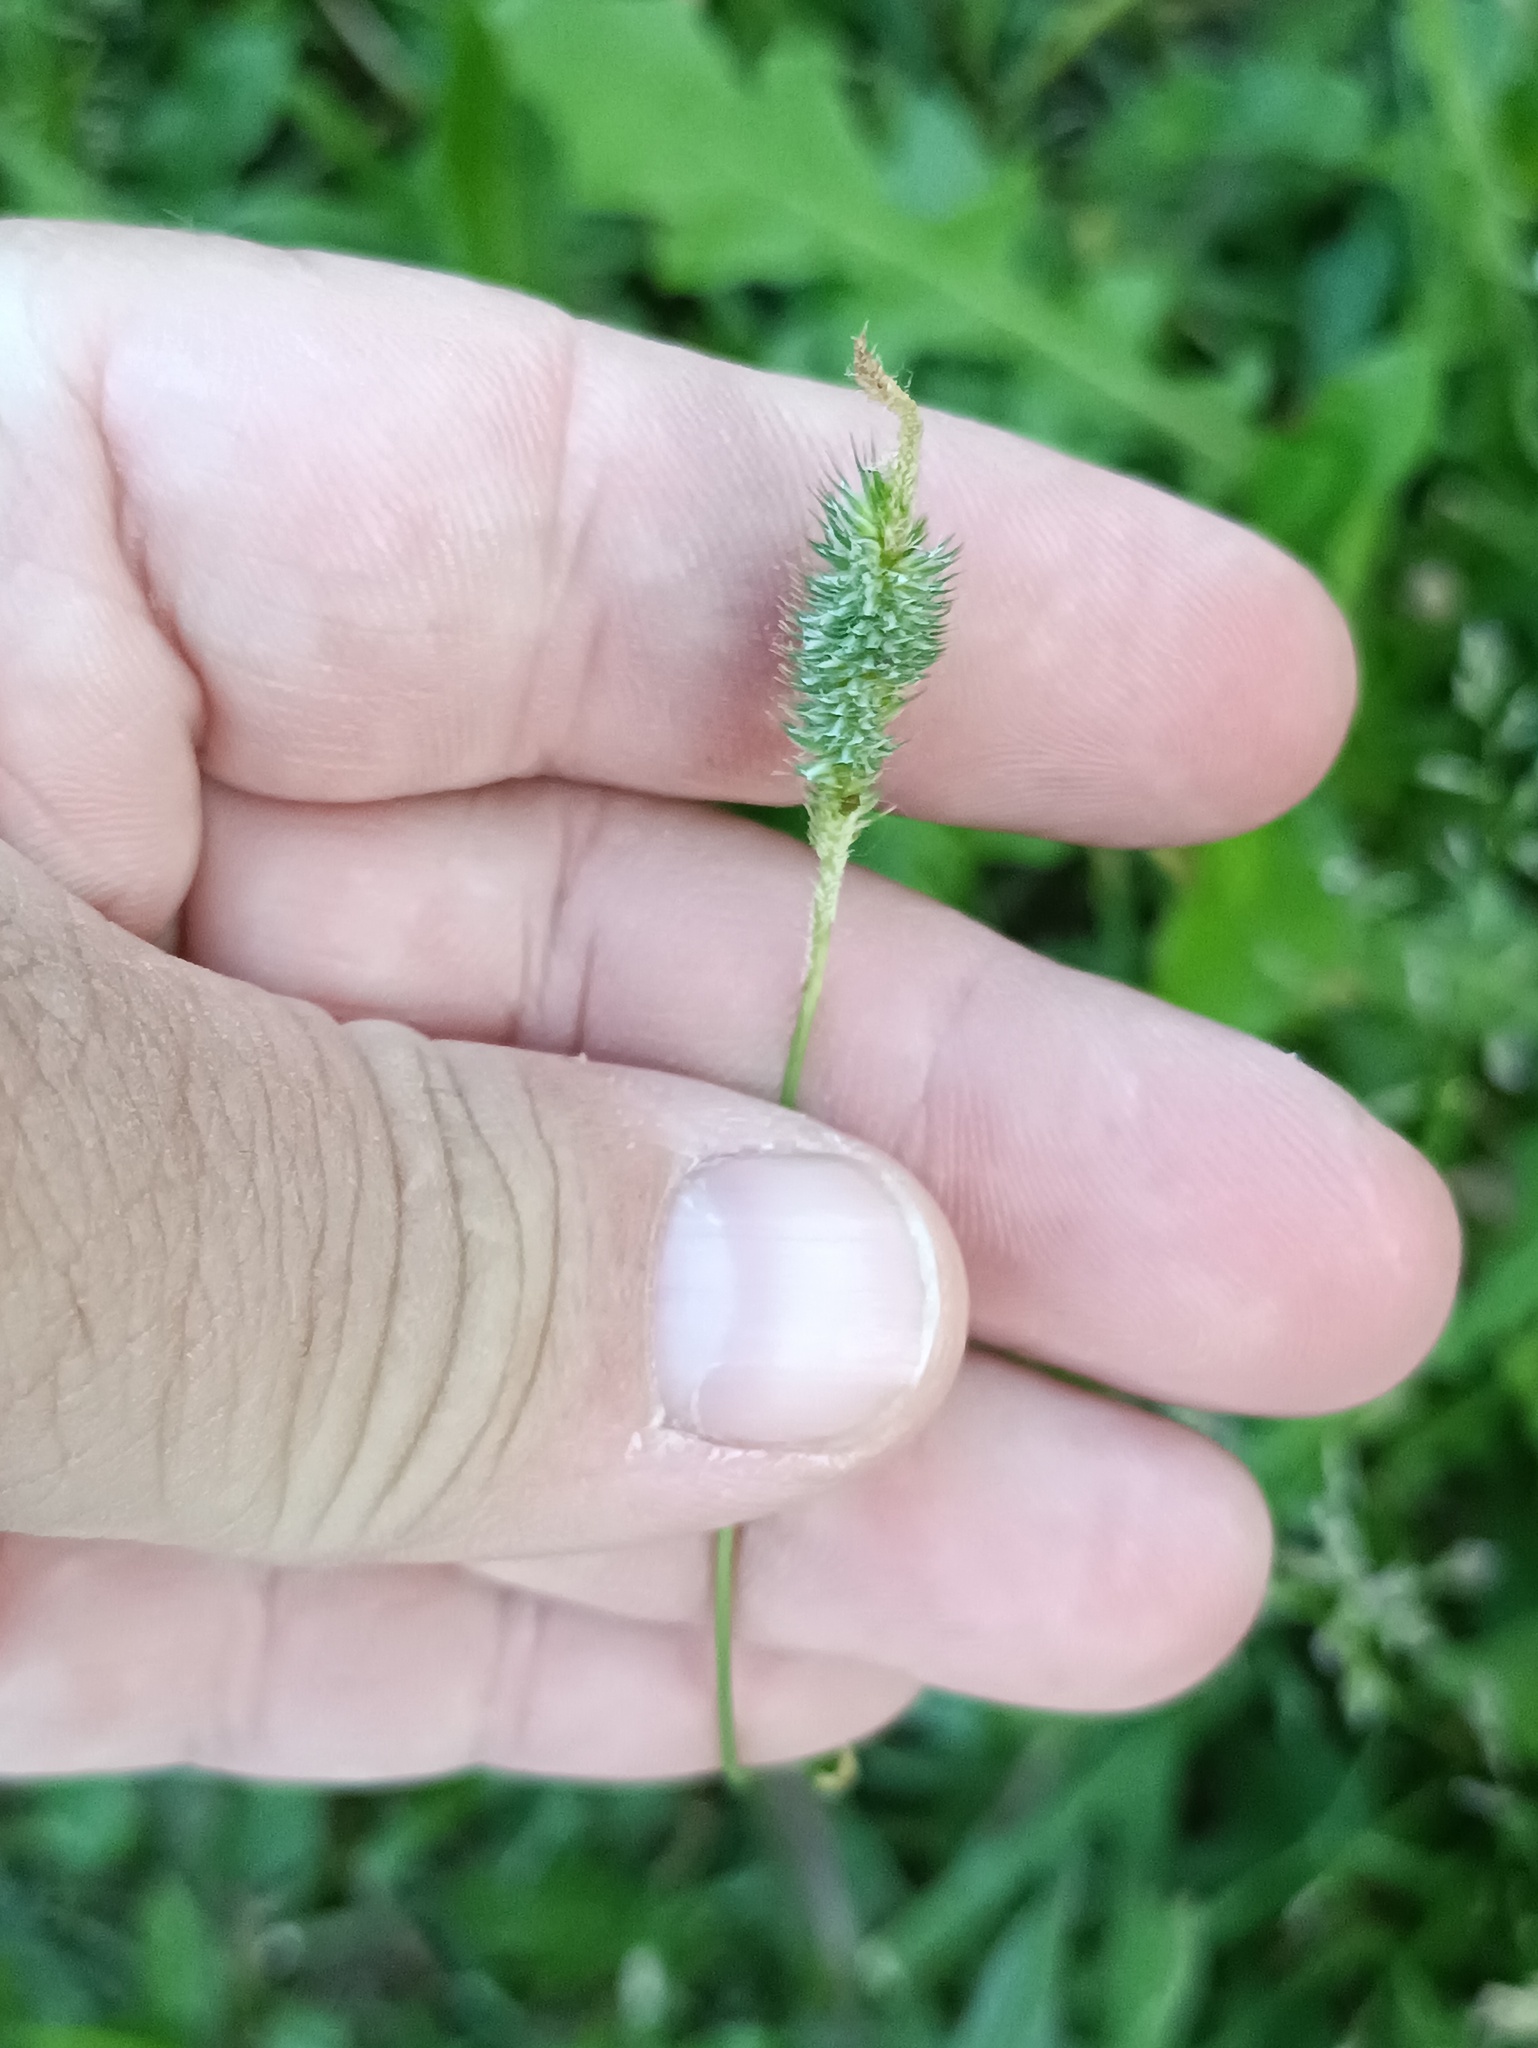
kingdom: Plantae
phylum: Tracheophyta
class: Liliopsida
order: Poales
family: Poaceae
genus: Phleum
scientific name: Phleum pratense
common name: Timothy grass
